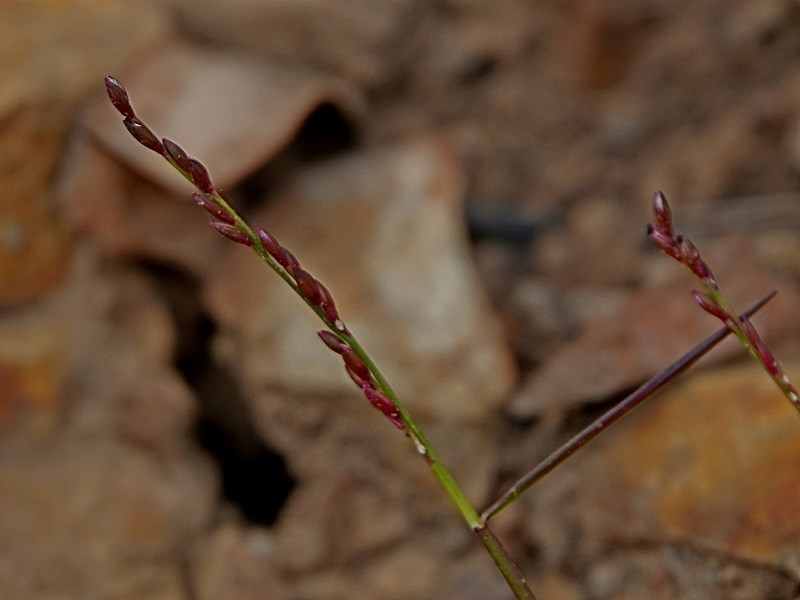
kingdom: Plantae
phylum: Tracheophyta
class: Liliopsida
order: Poales
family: Poaceae
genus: Entolasia
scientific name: Entolasia stricta
